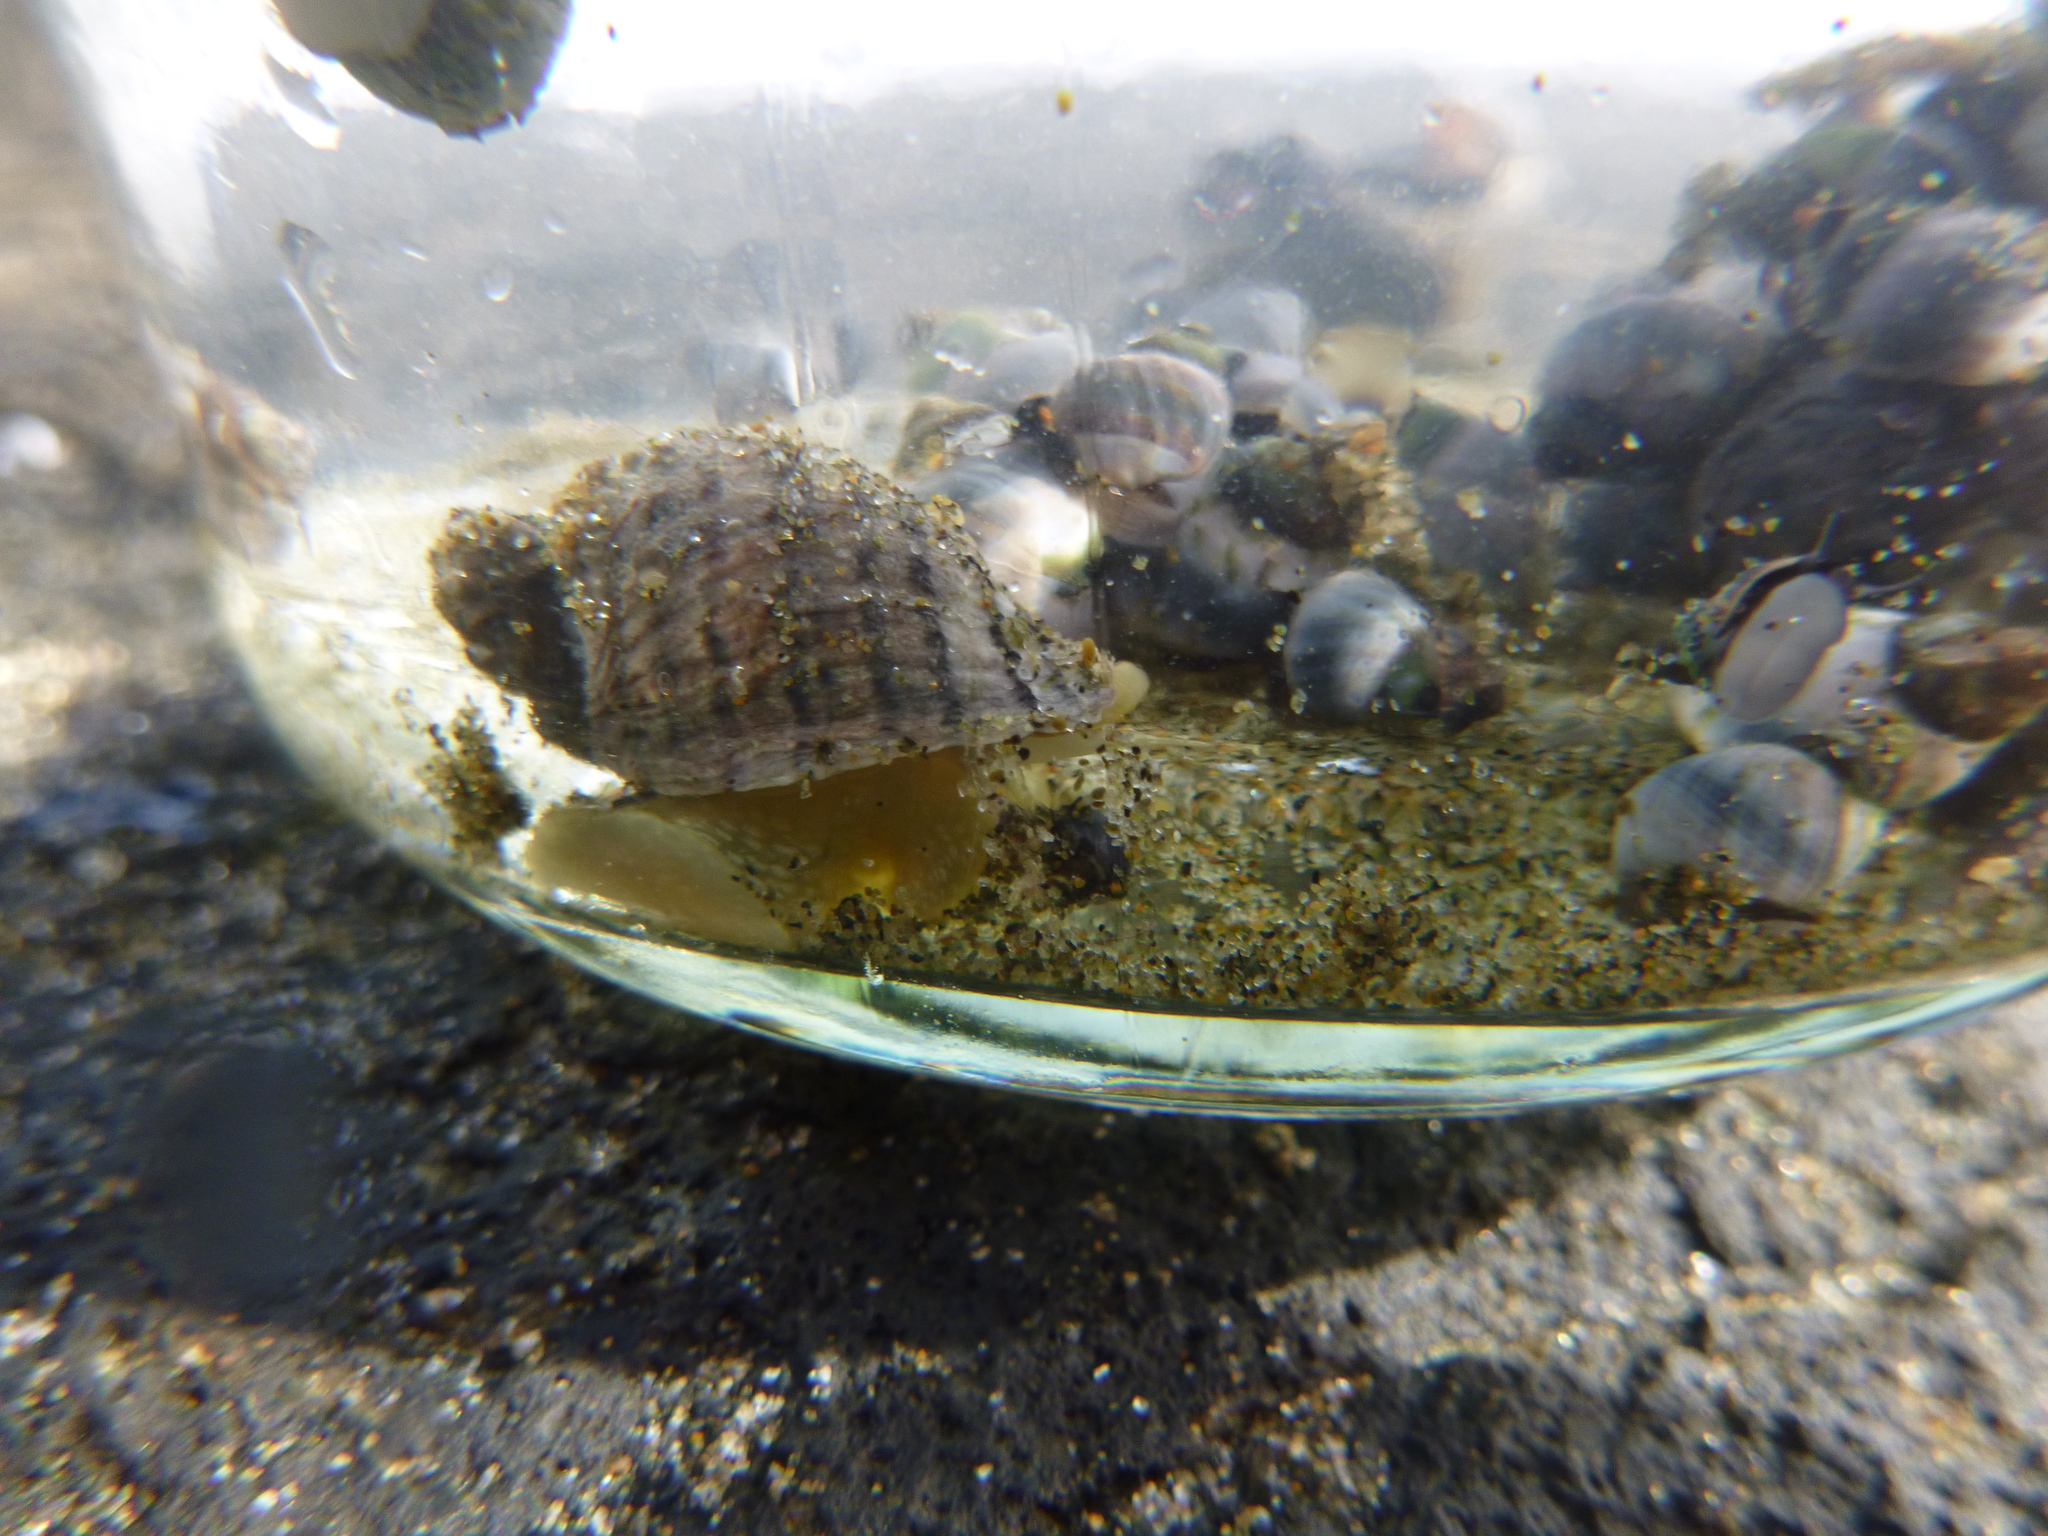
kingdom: Animalia
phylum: Mollusca
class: Gastropoda
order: Neogastropoda
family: Muricidae
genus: Haustrum
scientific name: Haustrum albomarginatum
